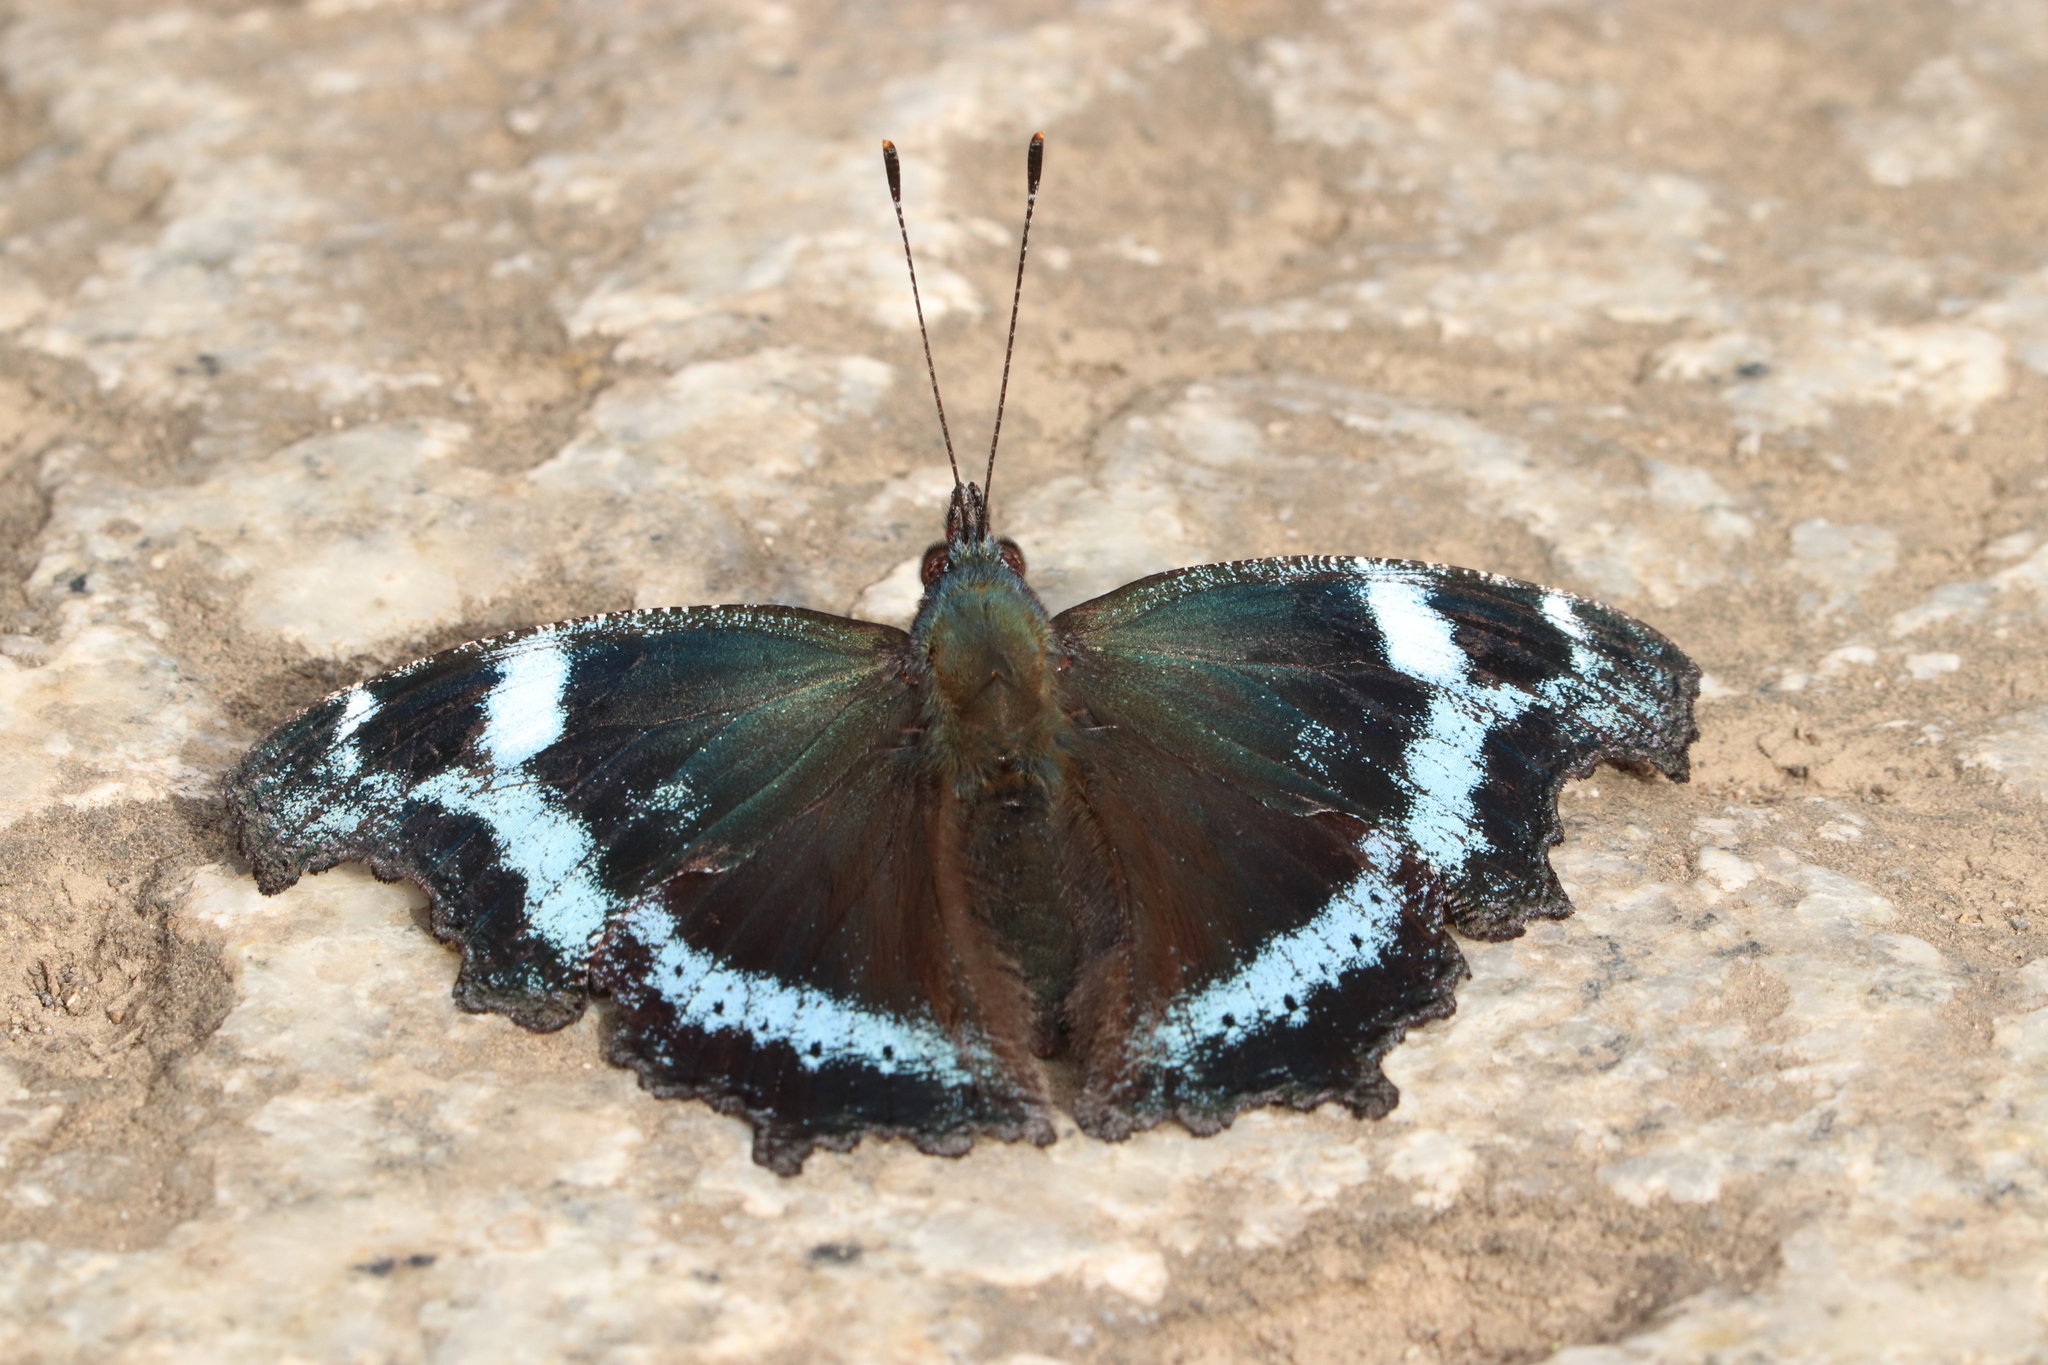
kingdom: Animalia
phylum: Arthropoda
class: Insecta
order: Lepidoptera
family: Nymphalidae
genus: Vanessa
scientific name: Vanessa Kaniska canace
